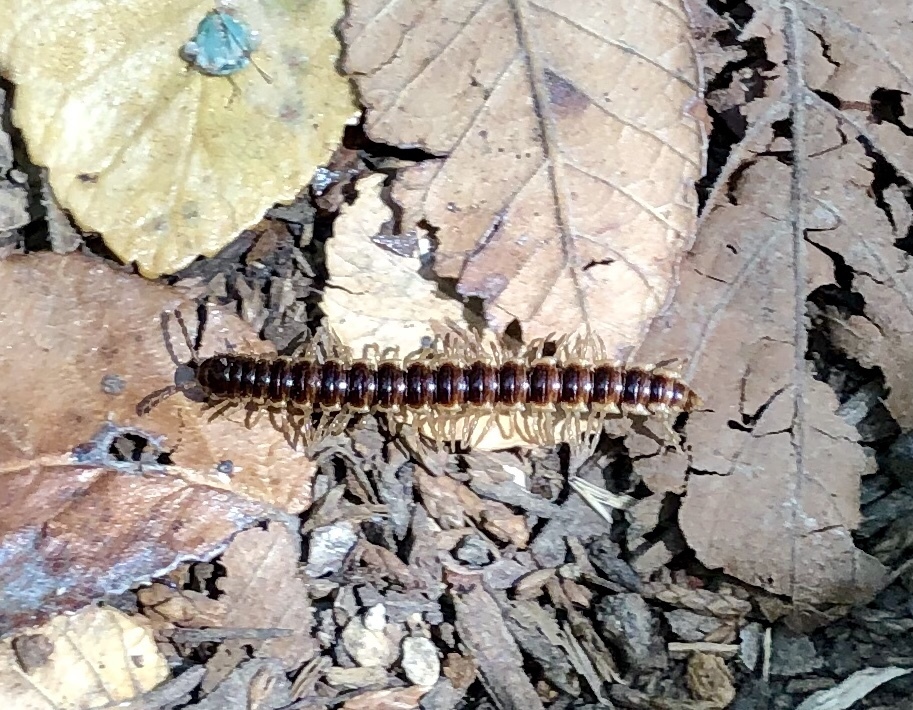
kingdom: Animalia
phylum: Arthropoda
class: Diplopoda
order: Polydesmida
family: Paradoxosomatidae
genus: Oxidus
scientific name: Oxidus gracilis
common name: Greenhouse millipede
